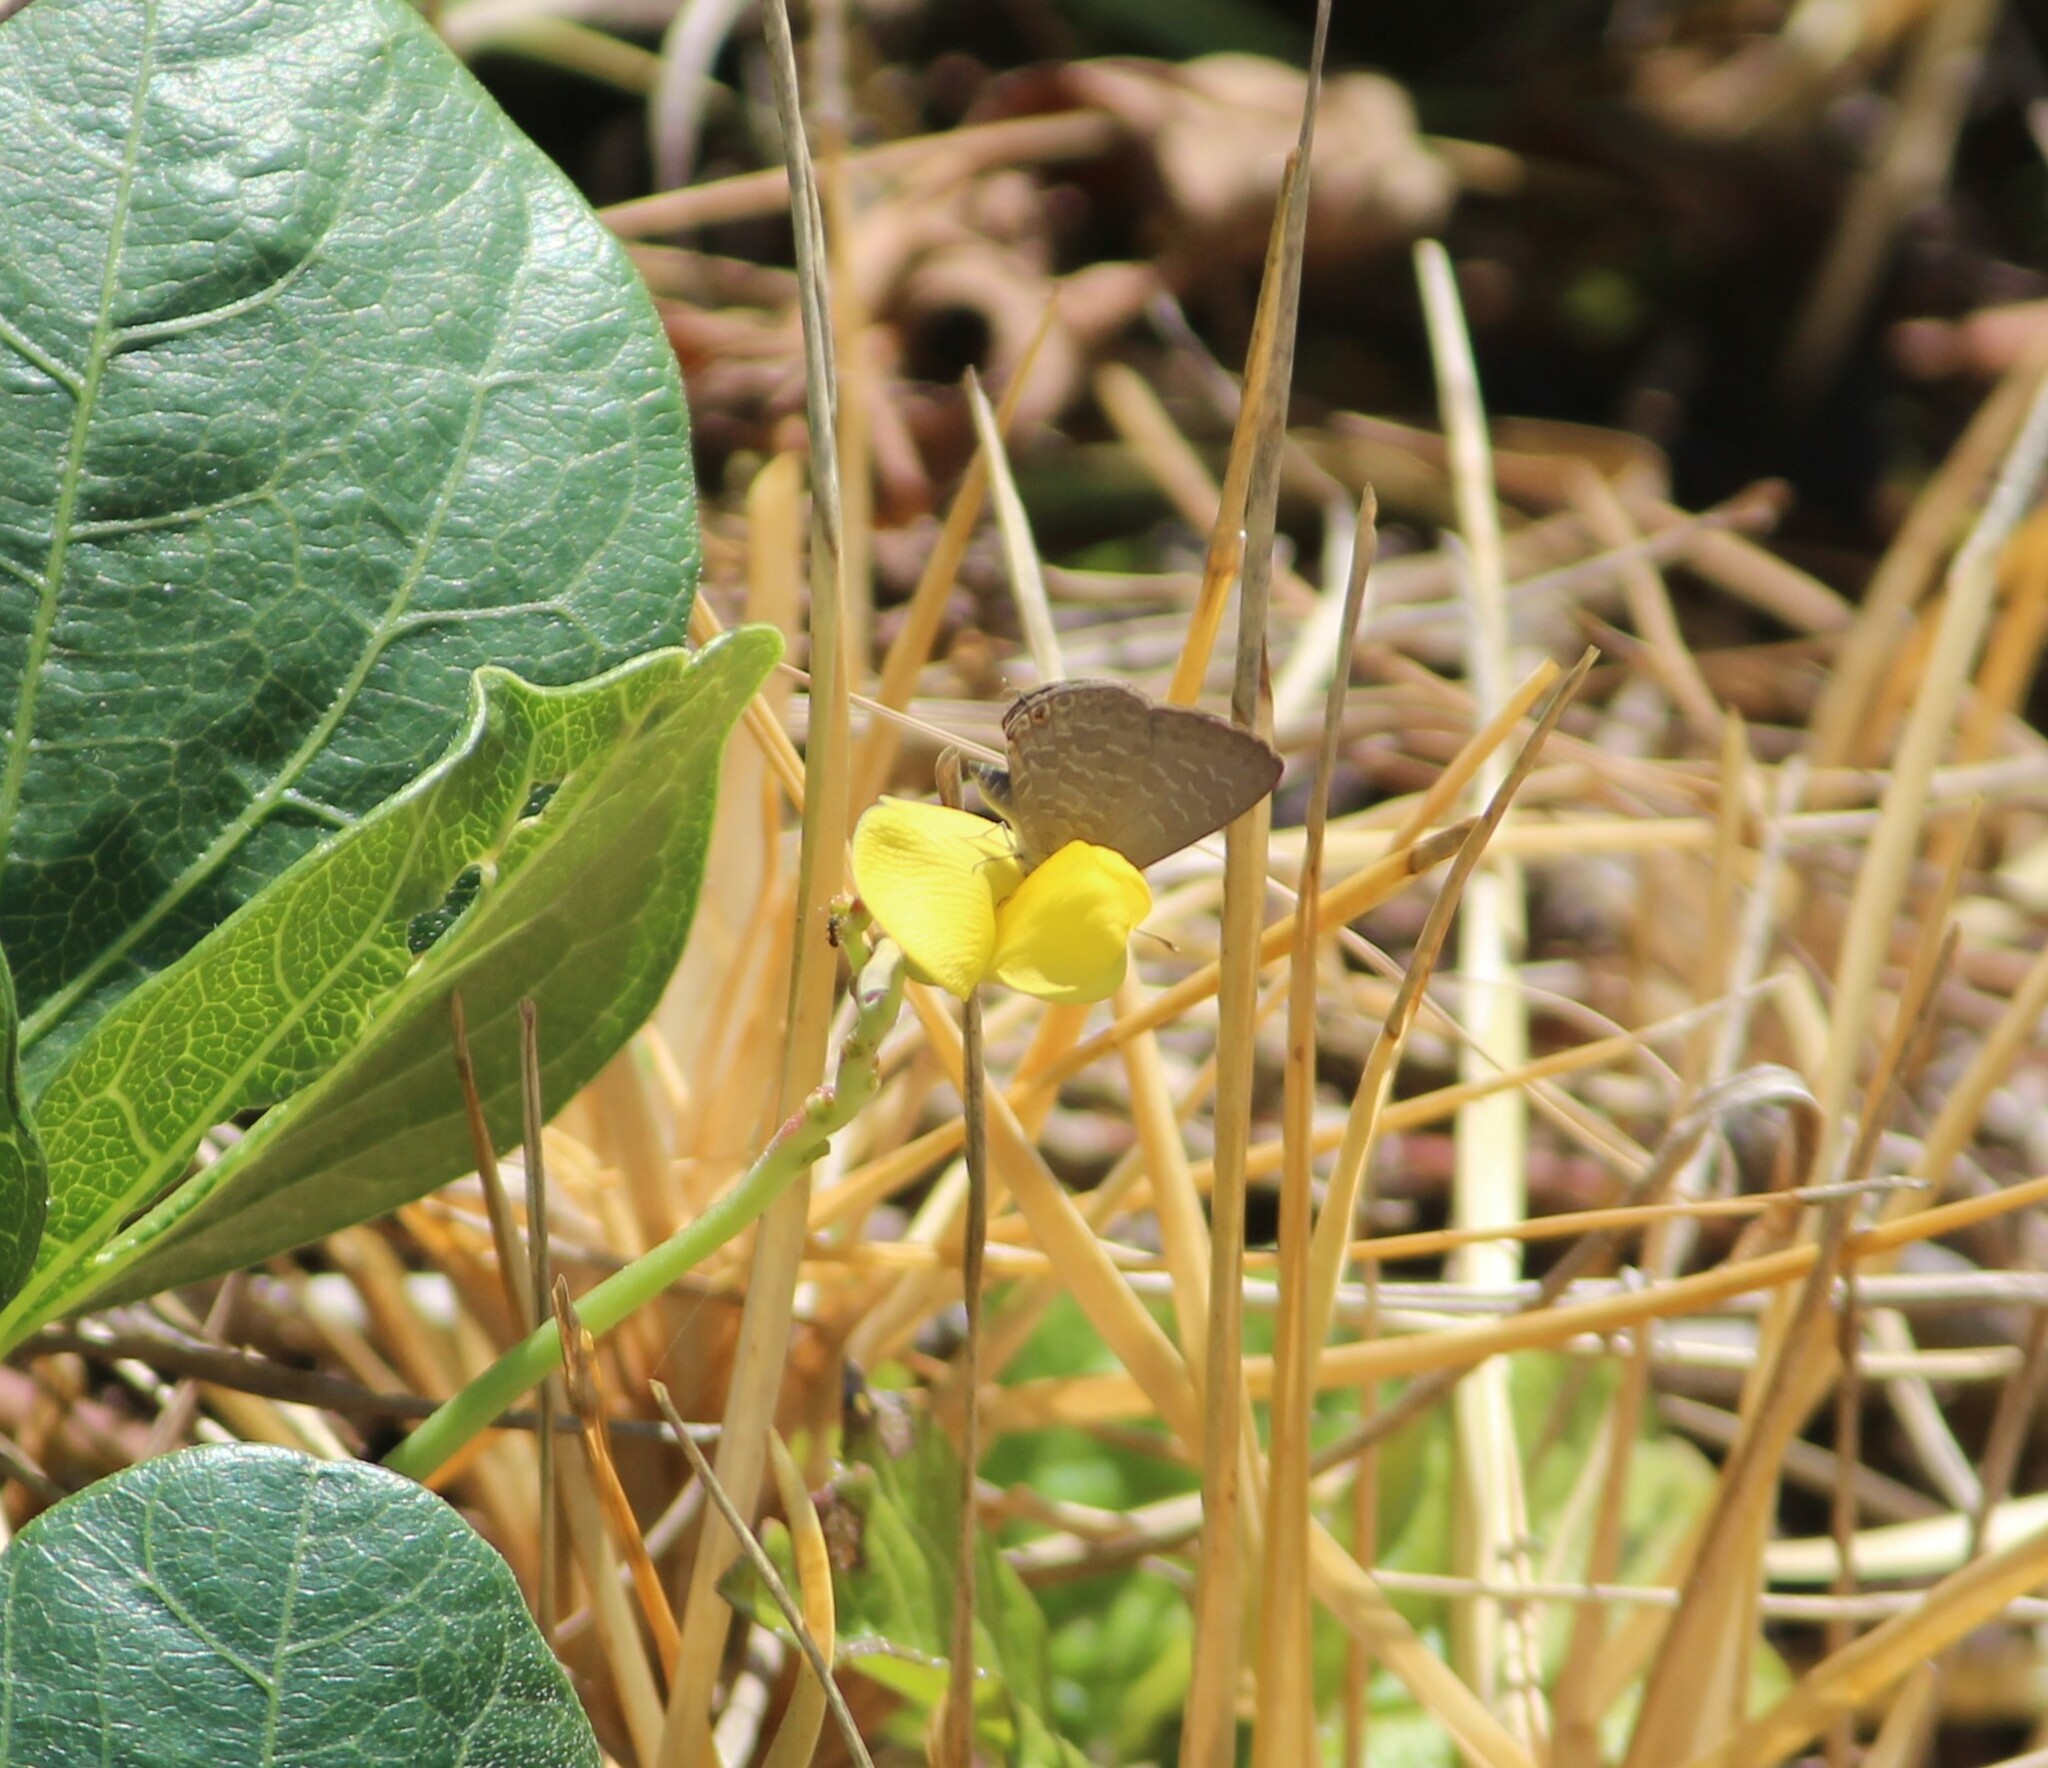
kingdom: Animalia
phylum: Arthropoda
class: Insecta
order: Lepidoptera
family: Lycaenidae
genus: Jamides
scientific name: Jamides phaseli
